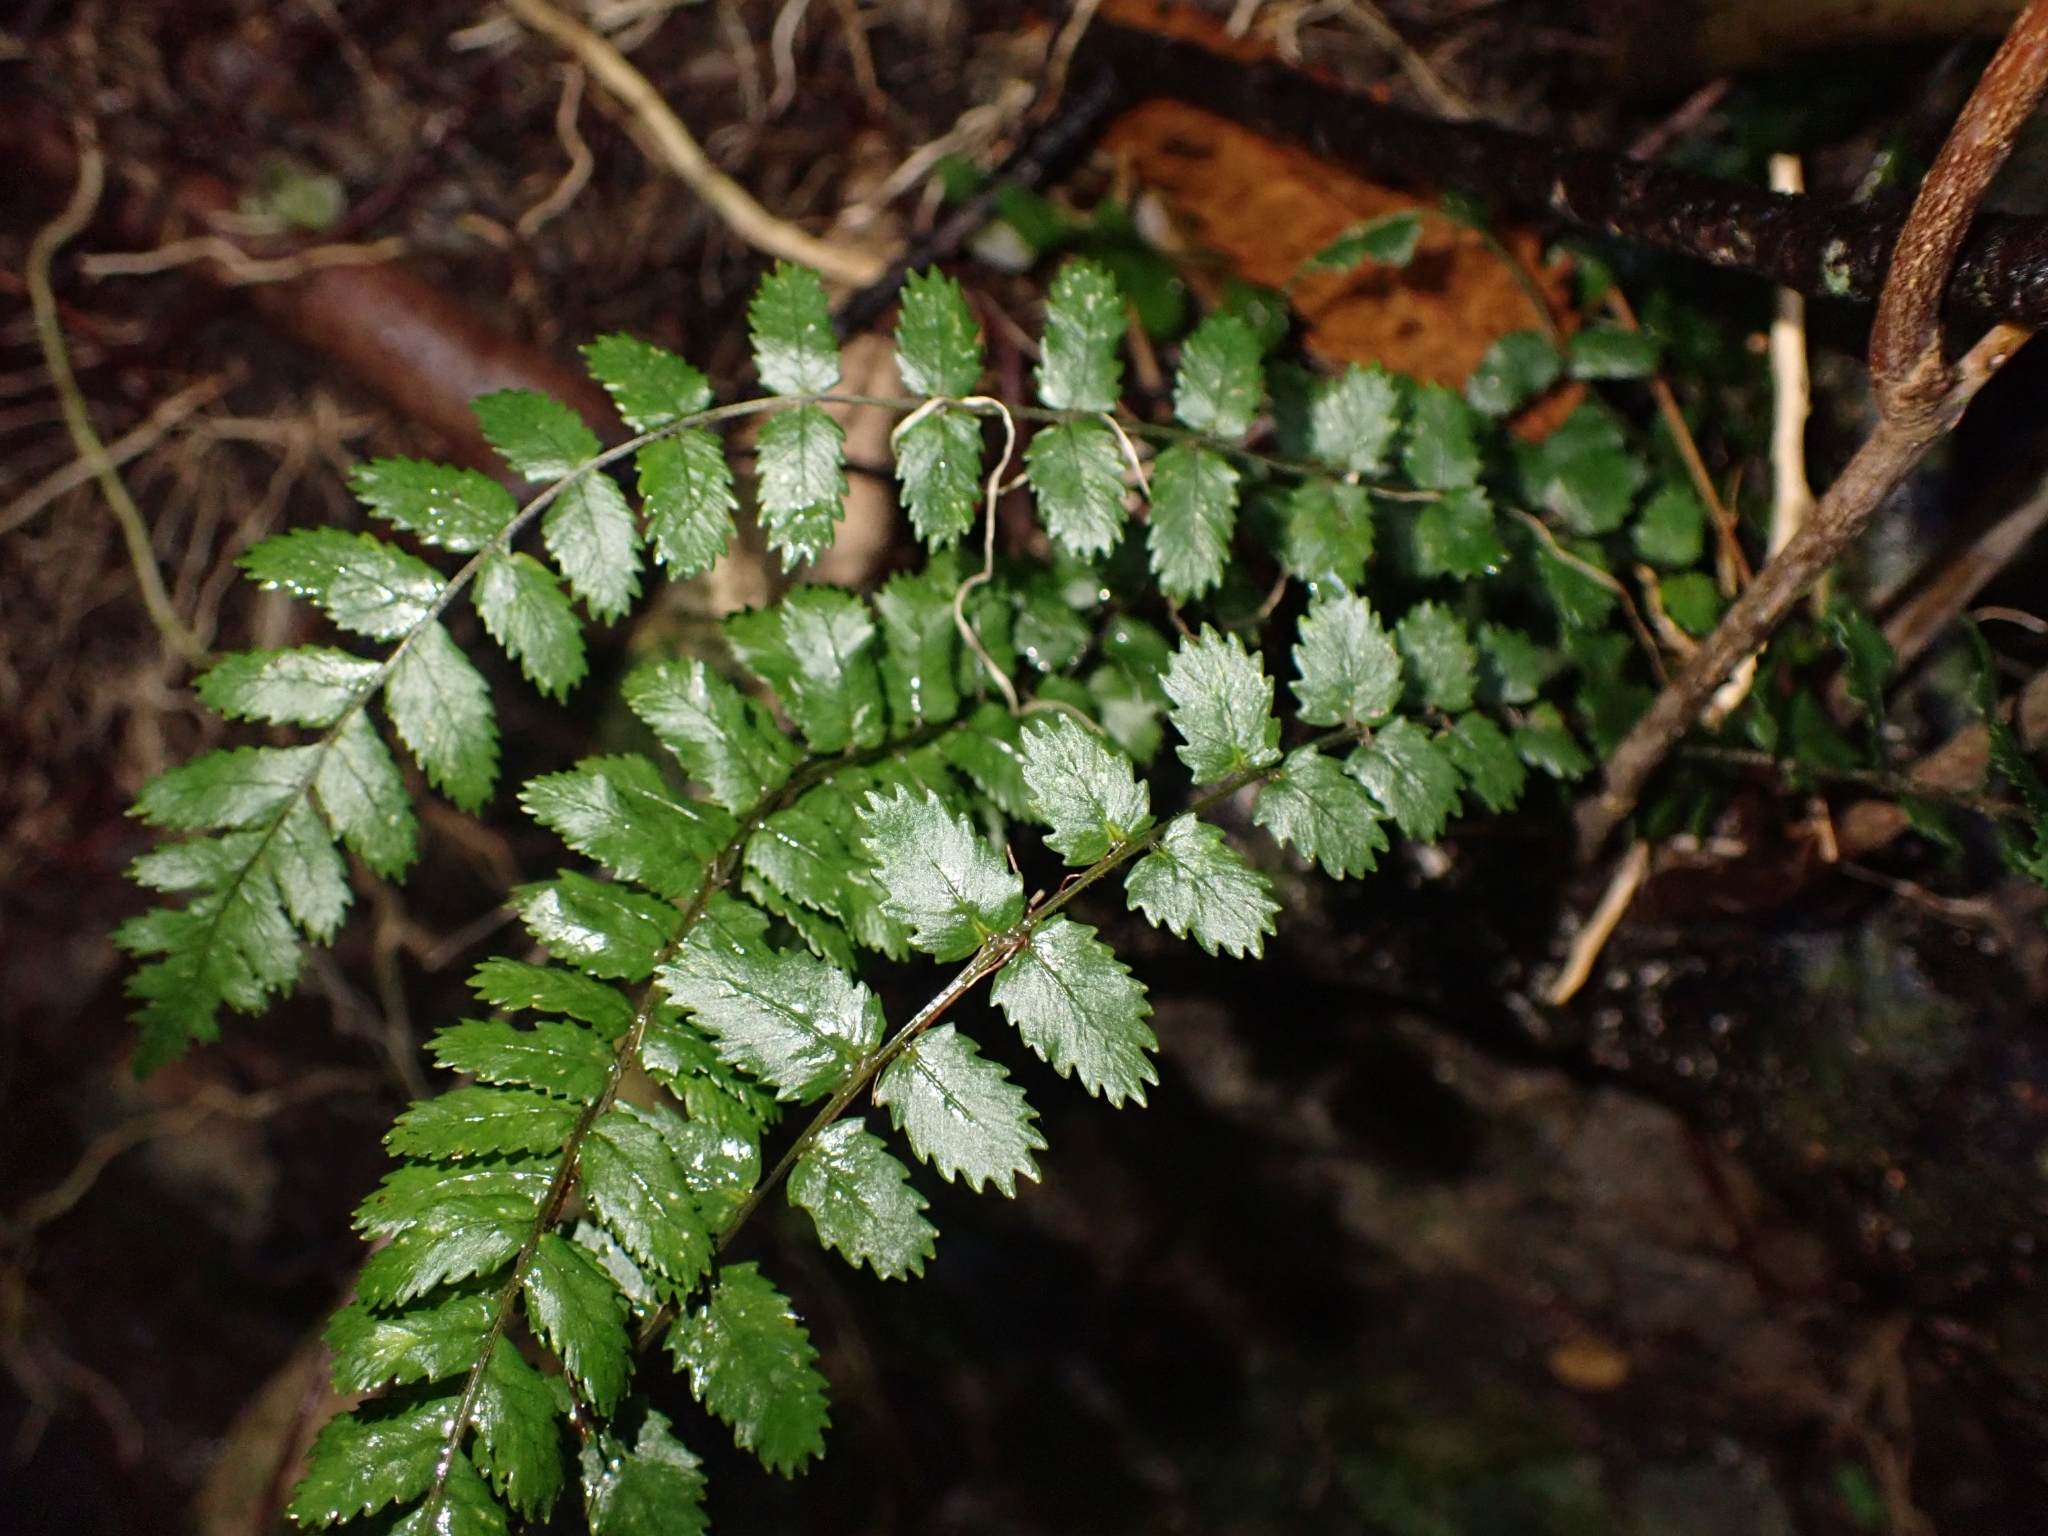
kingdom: Plantae
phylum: Tracheophyta
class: Polypodiopsida
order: Polypodiales
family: Blechnaceae
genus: Icarus
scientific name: Icarus filiformis
